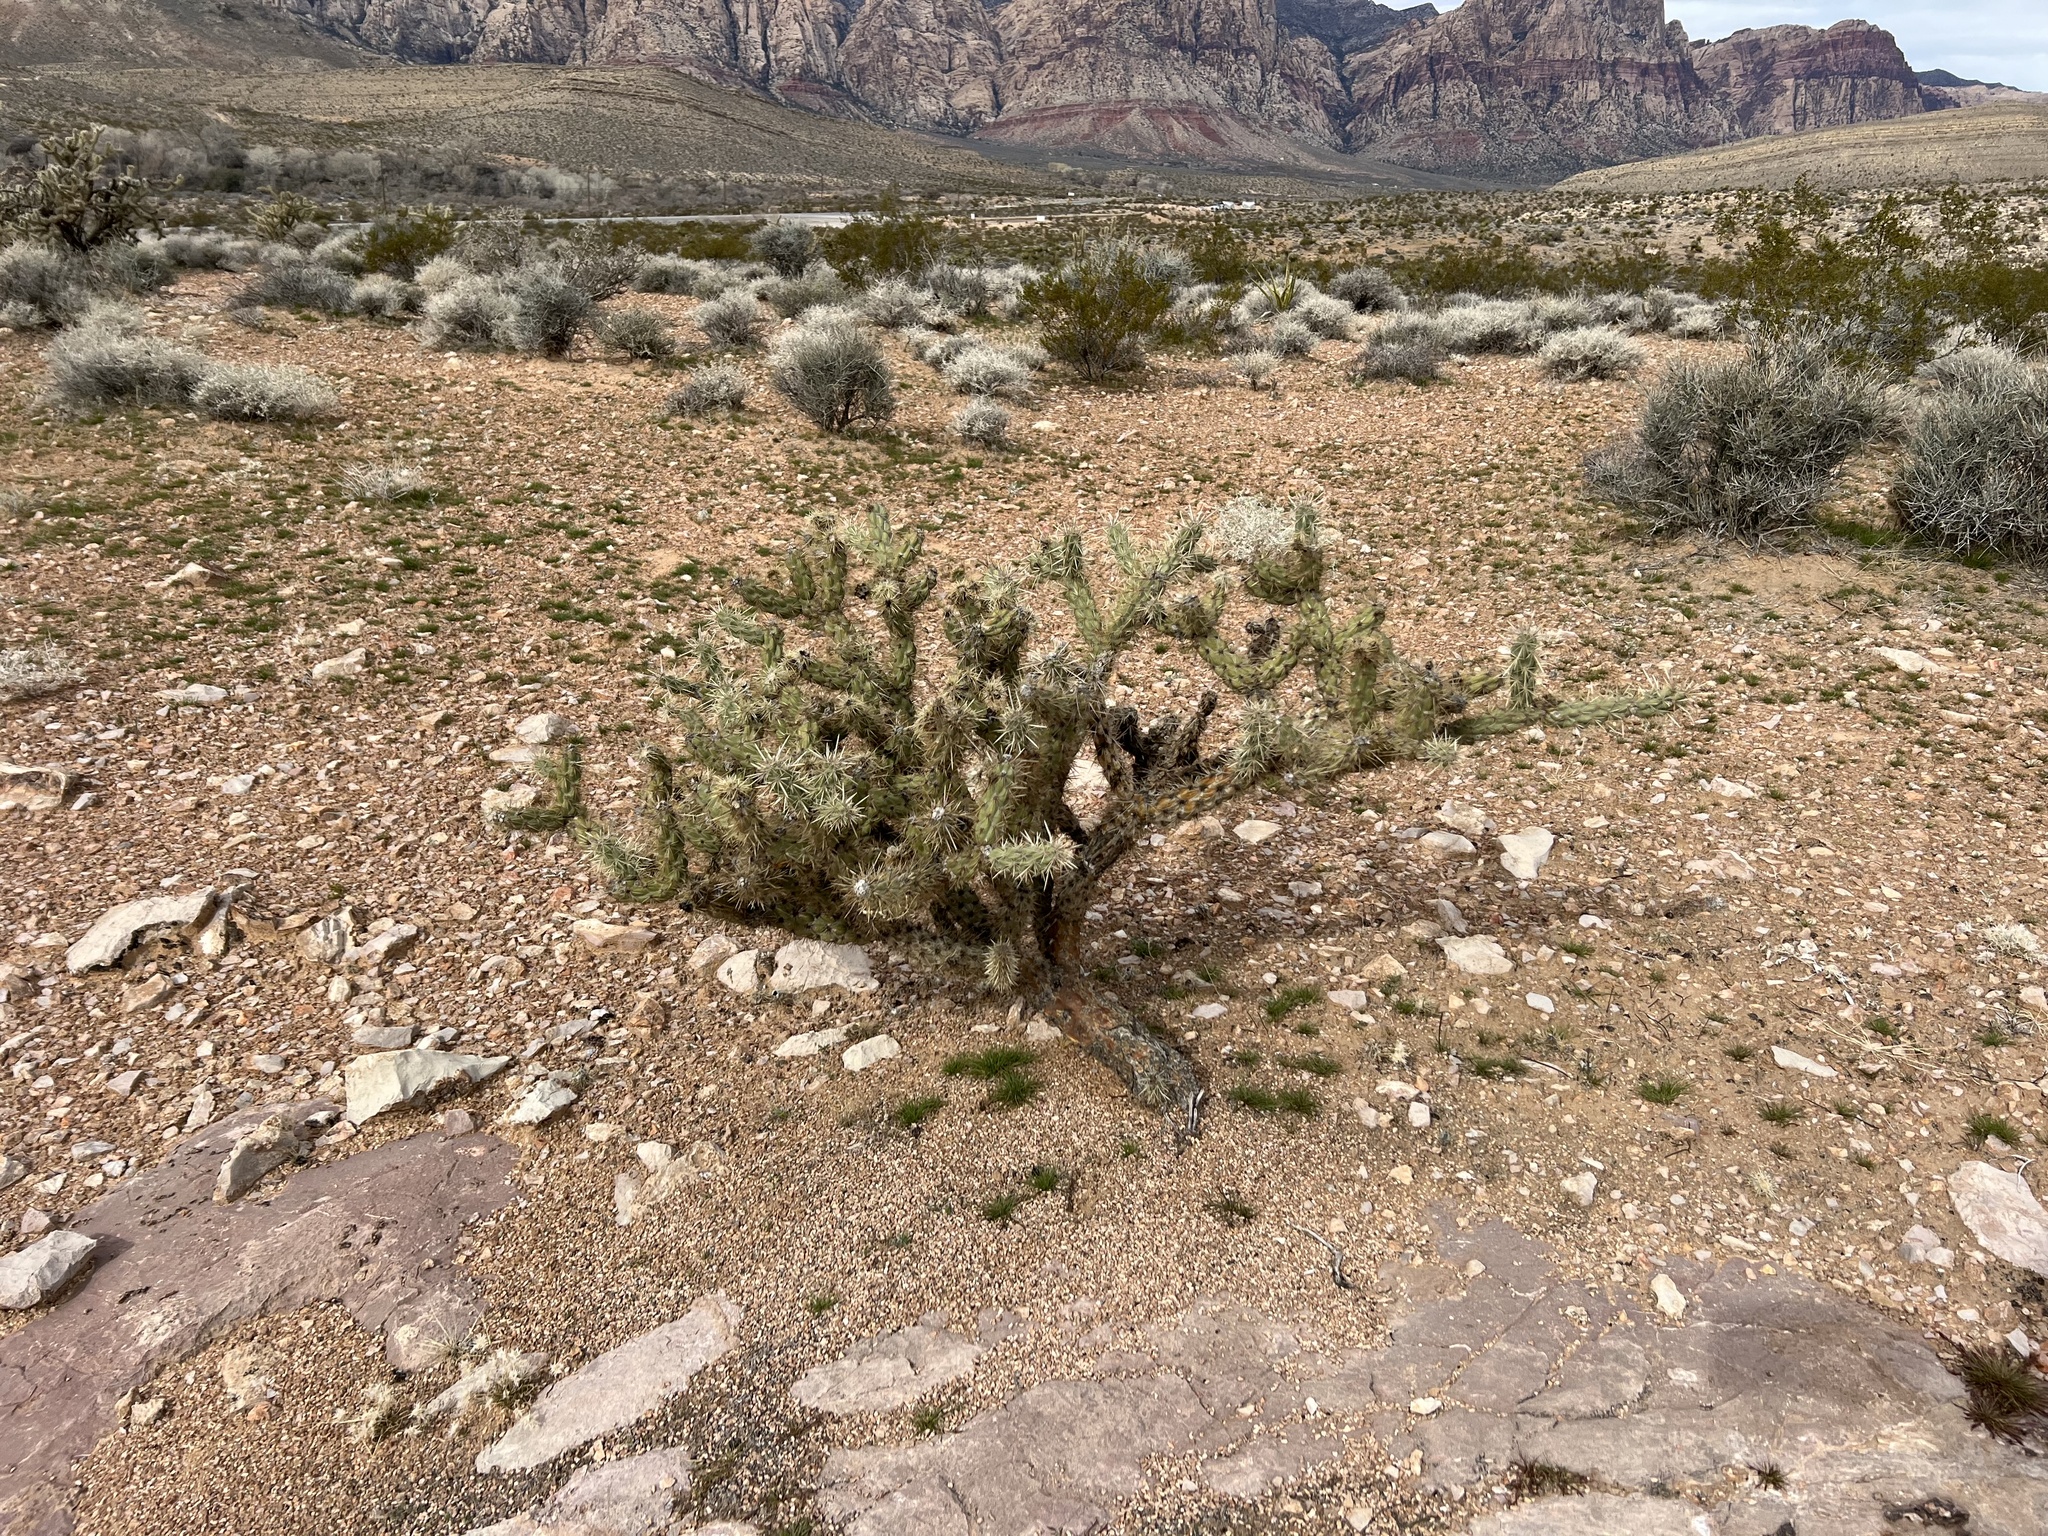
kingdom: Plantae
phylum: Tracheophyta
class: Magnoliopsida
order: Caryophyllales
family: Cactaceae
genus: Cylindropuntia
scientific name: Cylindropuntia acanthocarpa
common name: Buckhorn cholla
